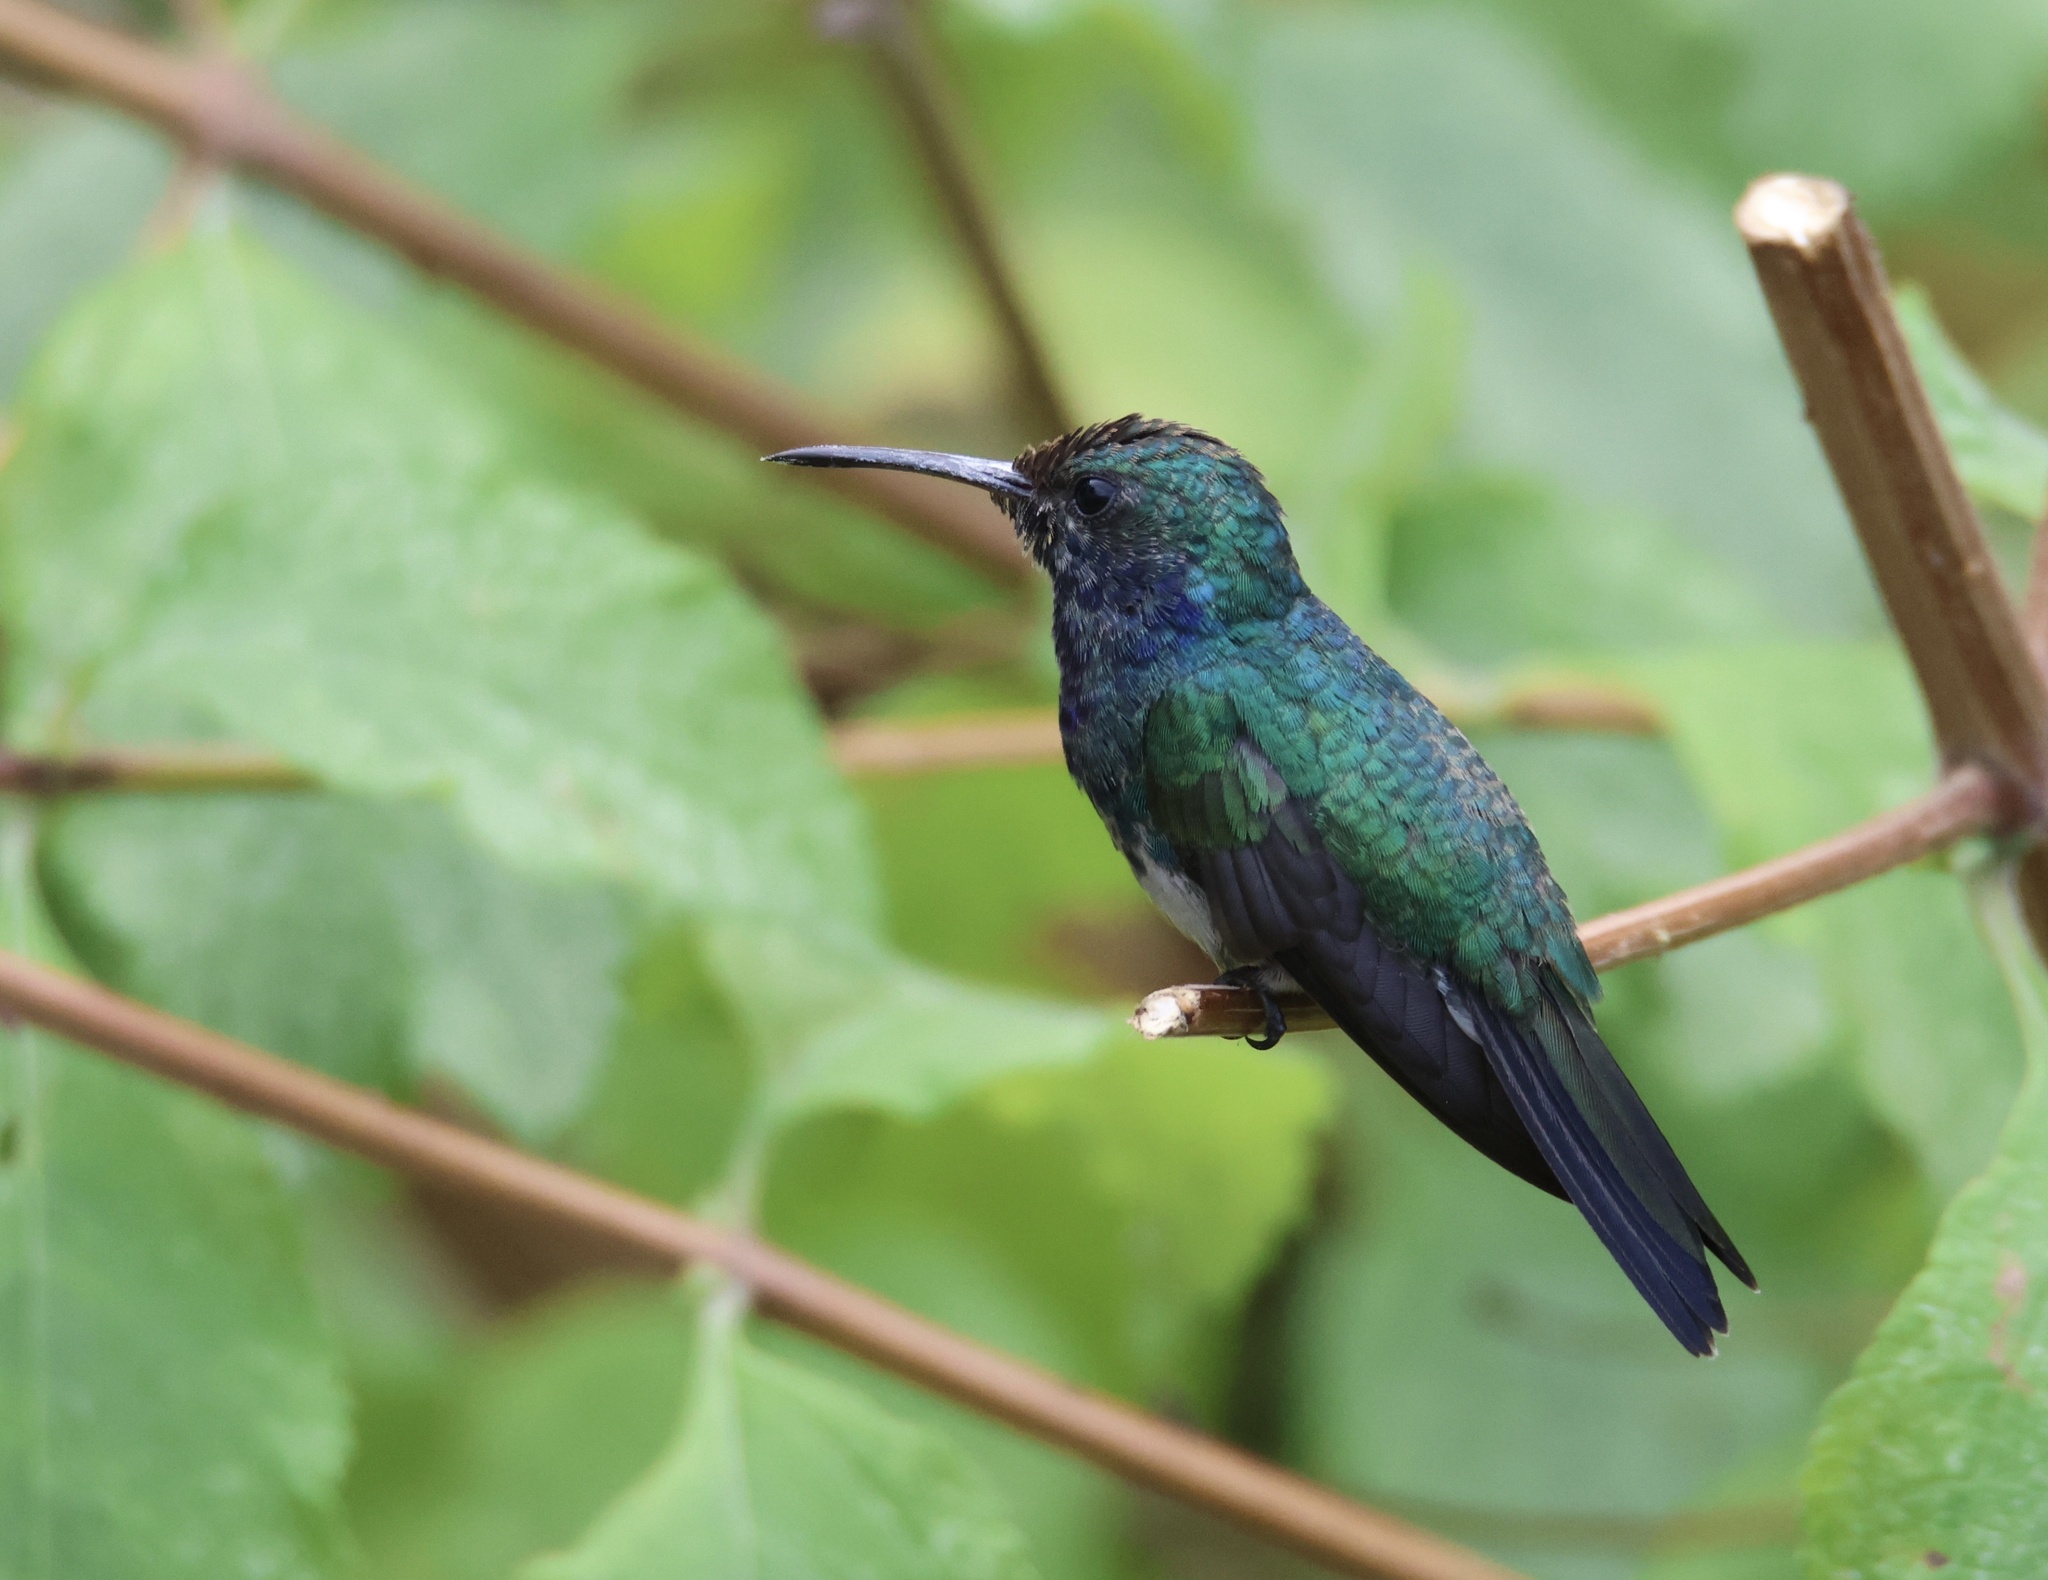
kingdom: Animalia
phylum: Chordata
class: Aves
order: Apodiformes
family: Trochilidae
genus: Chrysuronia
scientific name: Chrysuronia coeruleogularis
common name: Sapphire-throated hummingbird
